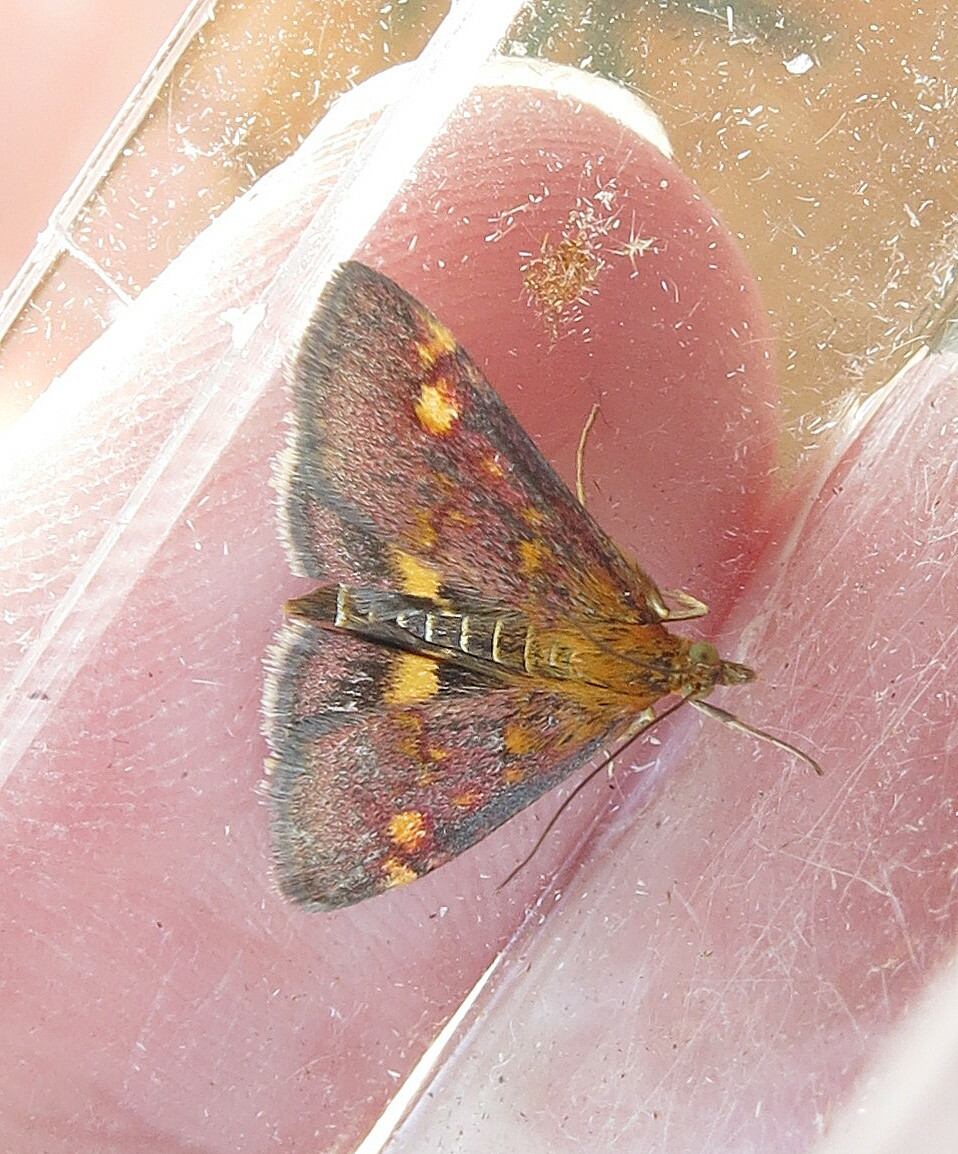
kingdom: Animalia
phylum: Arthropoda
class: Insecta
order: Lepidoptera
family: Crambidae
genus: Pyrausta
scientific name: Pyrausta aurata
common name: Small purple & gold
